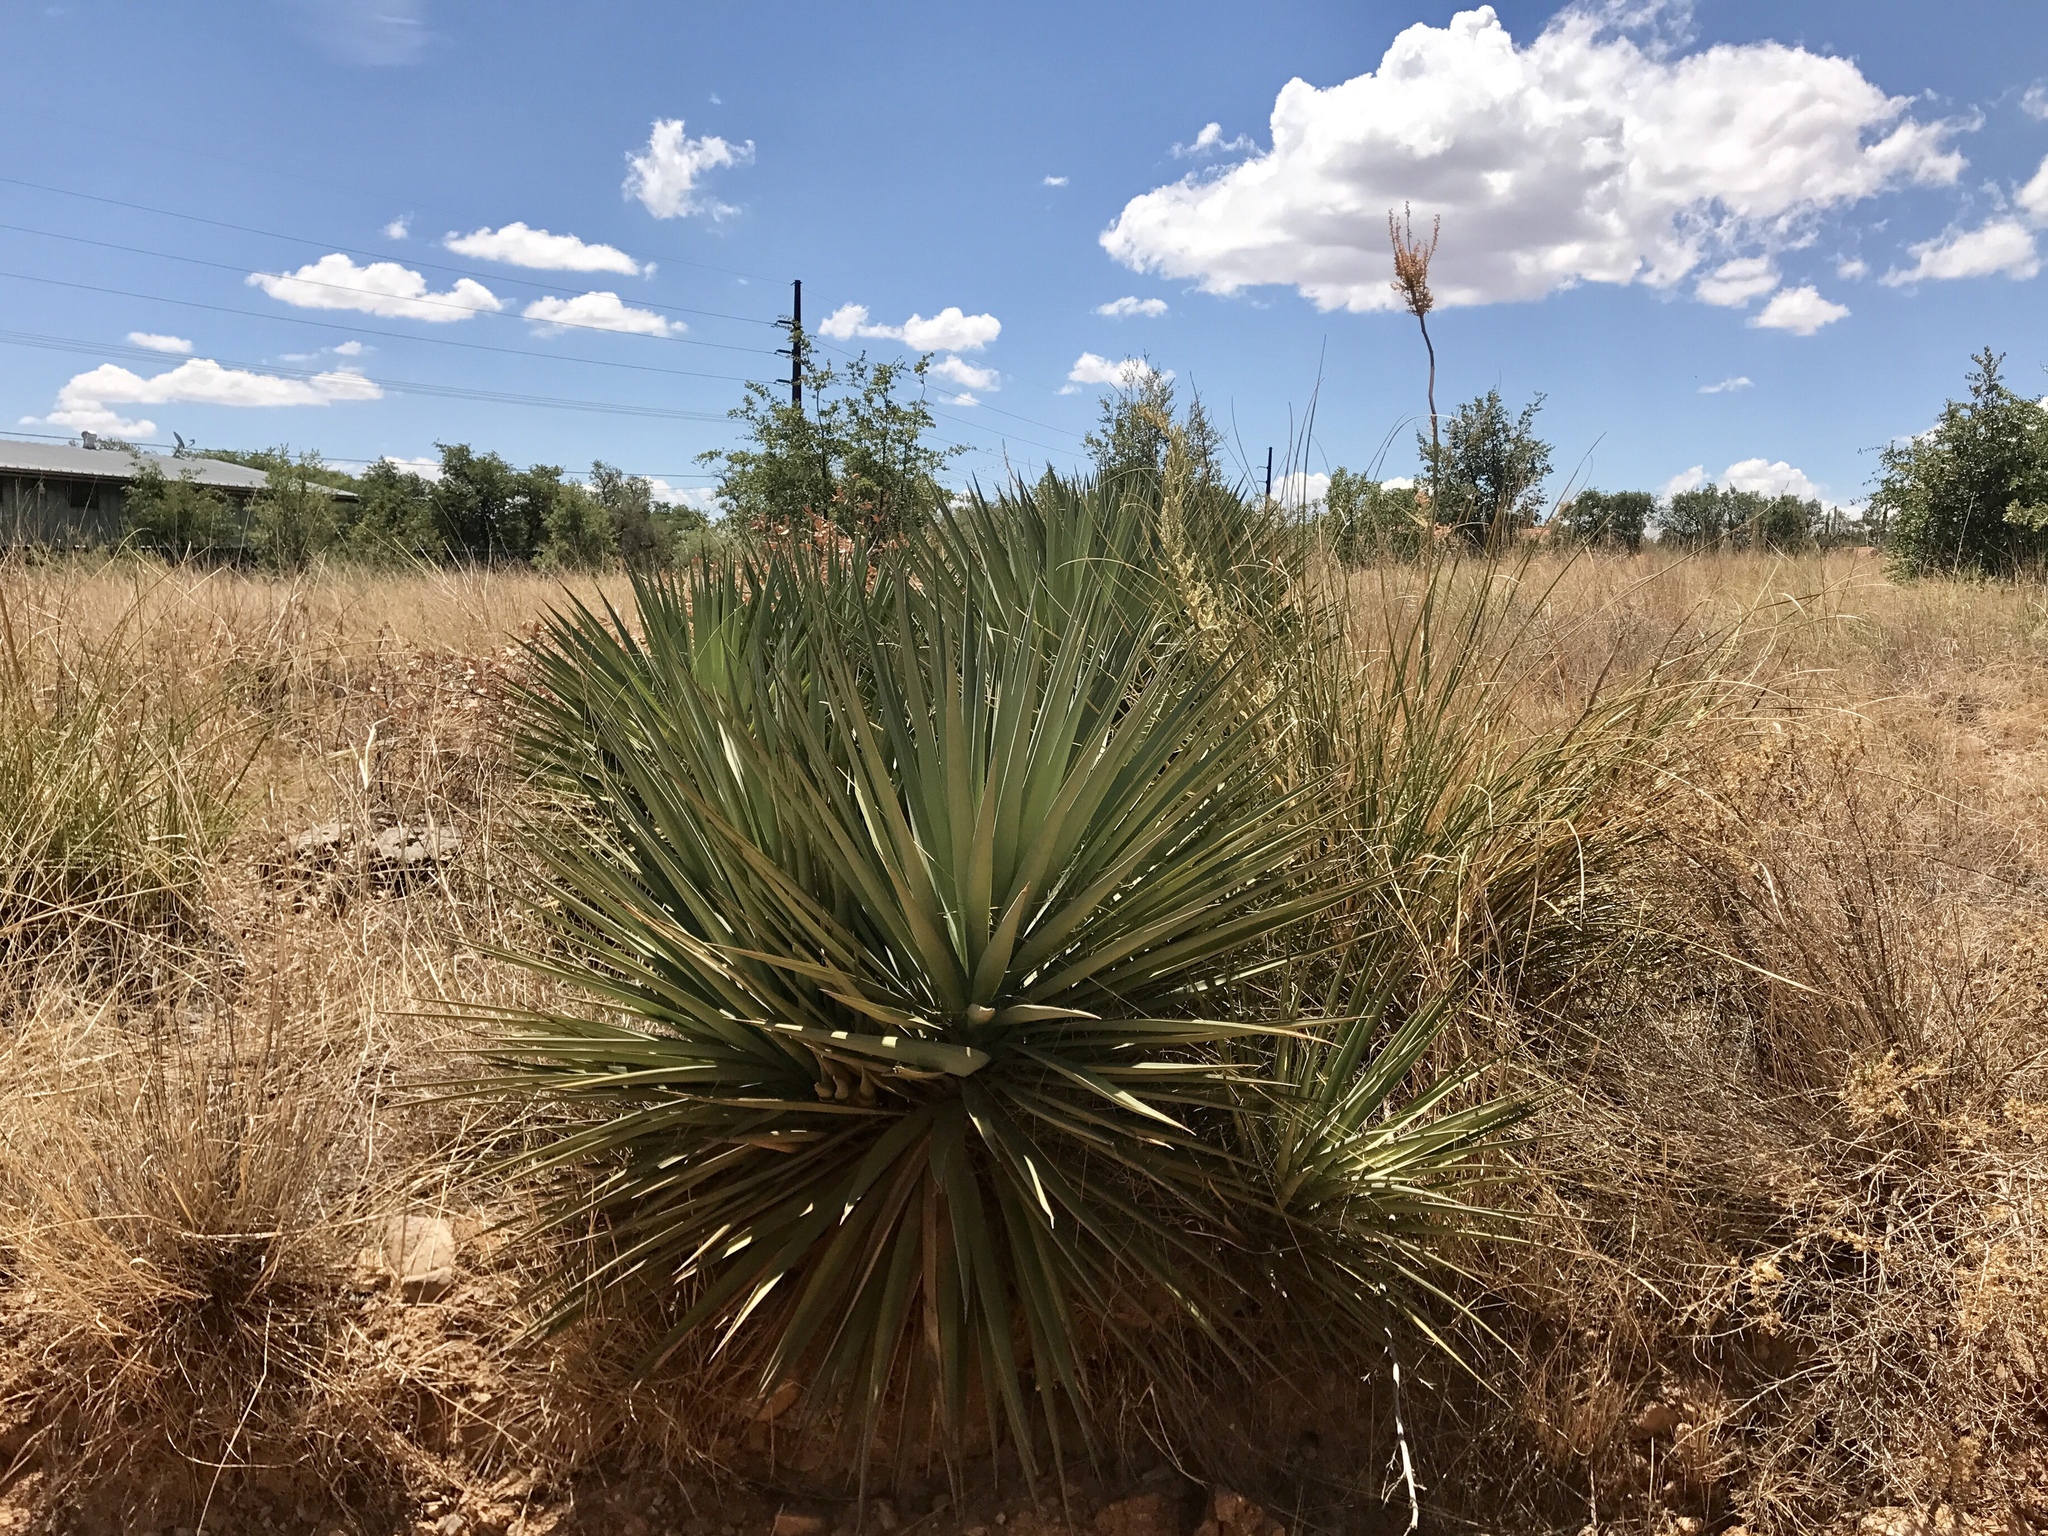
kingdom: Plantae
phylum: Tracheophyta
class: Liliopsida
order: Asparagales
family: Asparagaceae
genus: Yucca
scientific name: Yucca schottii
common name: Hoary yucca
